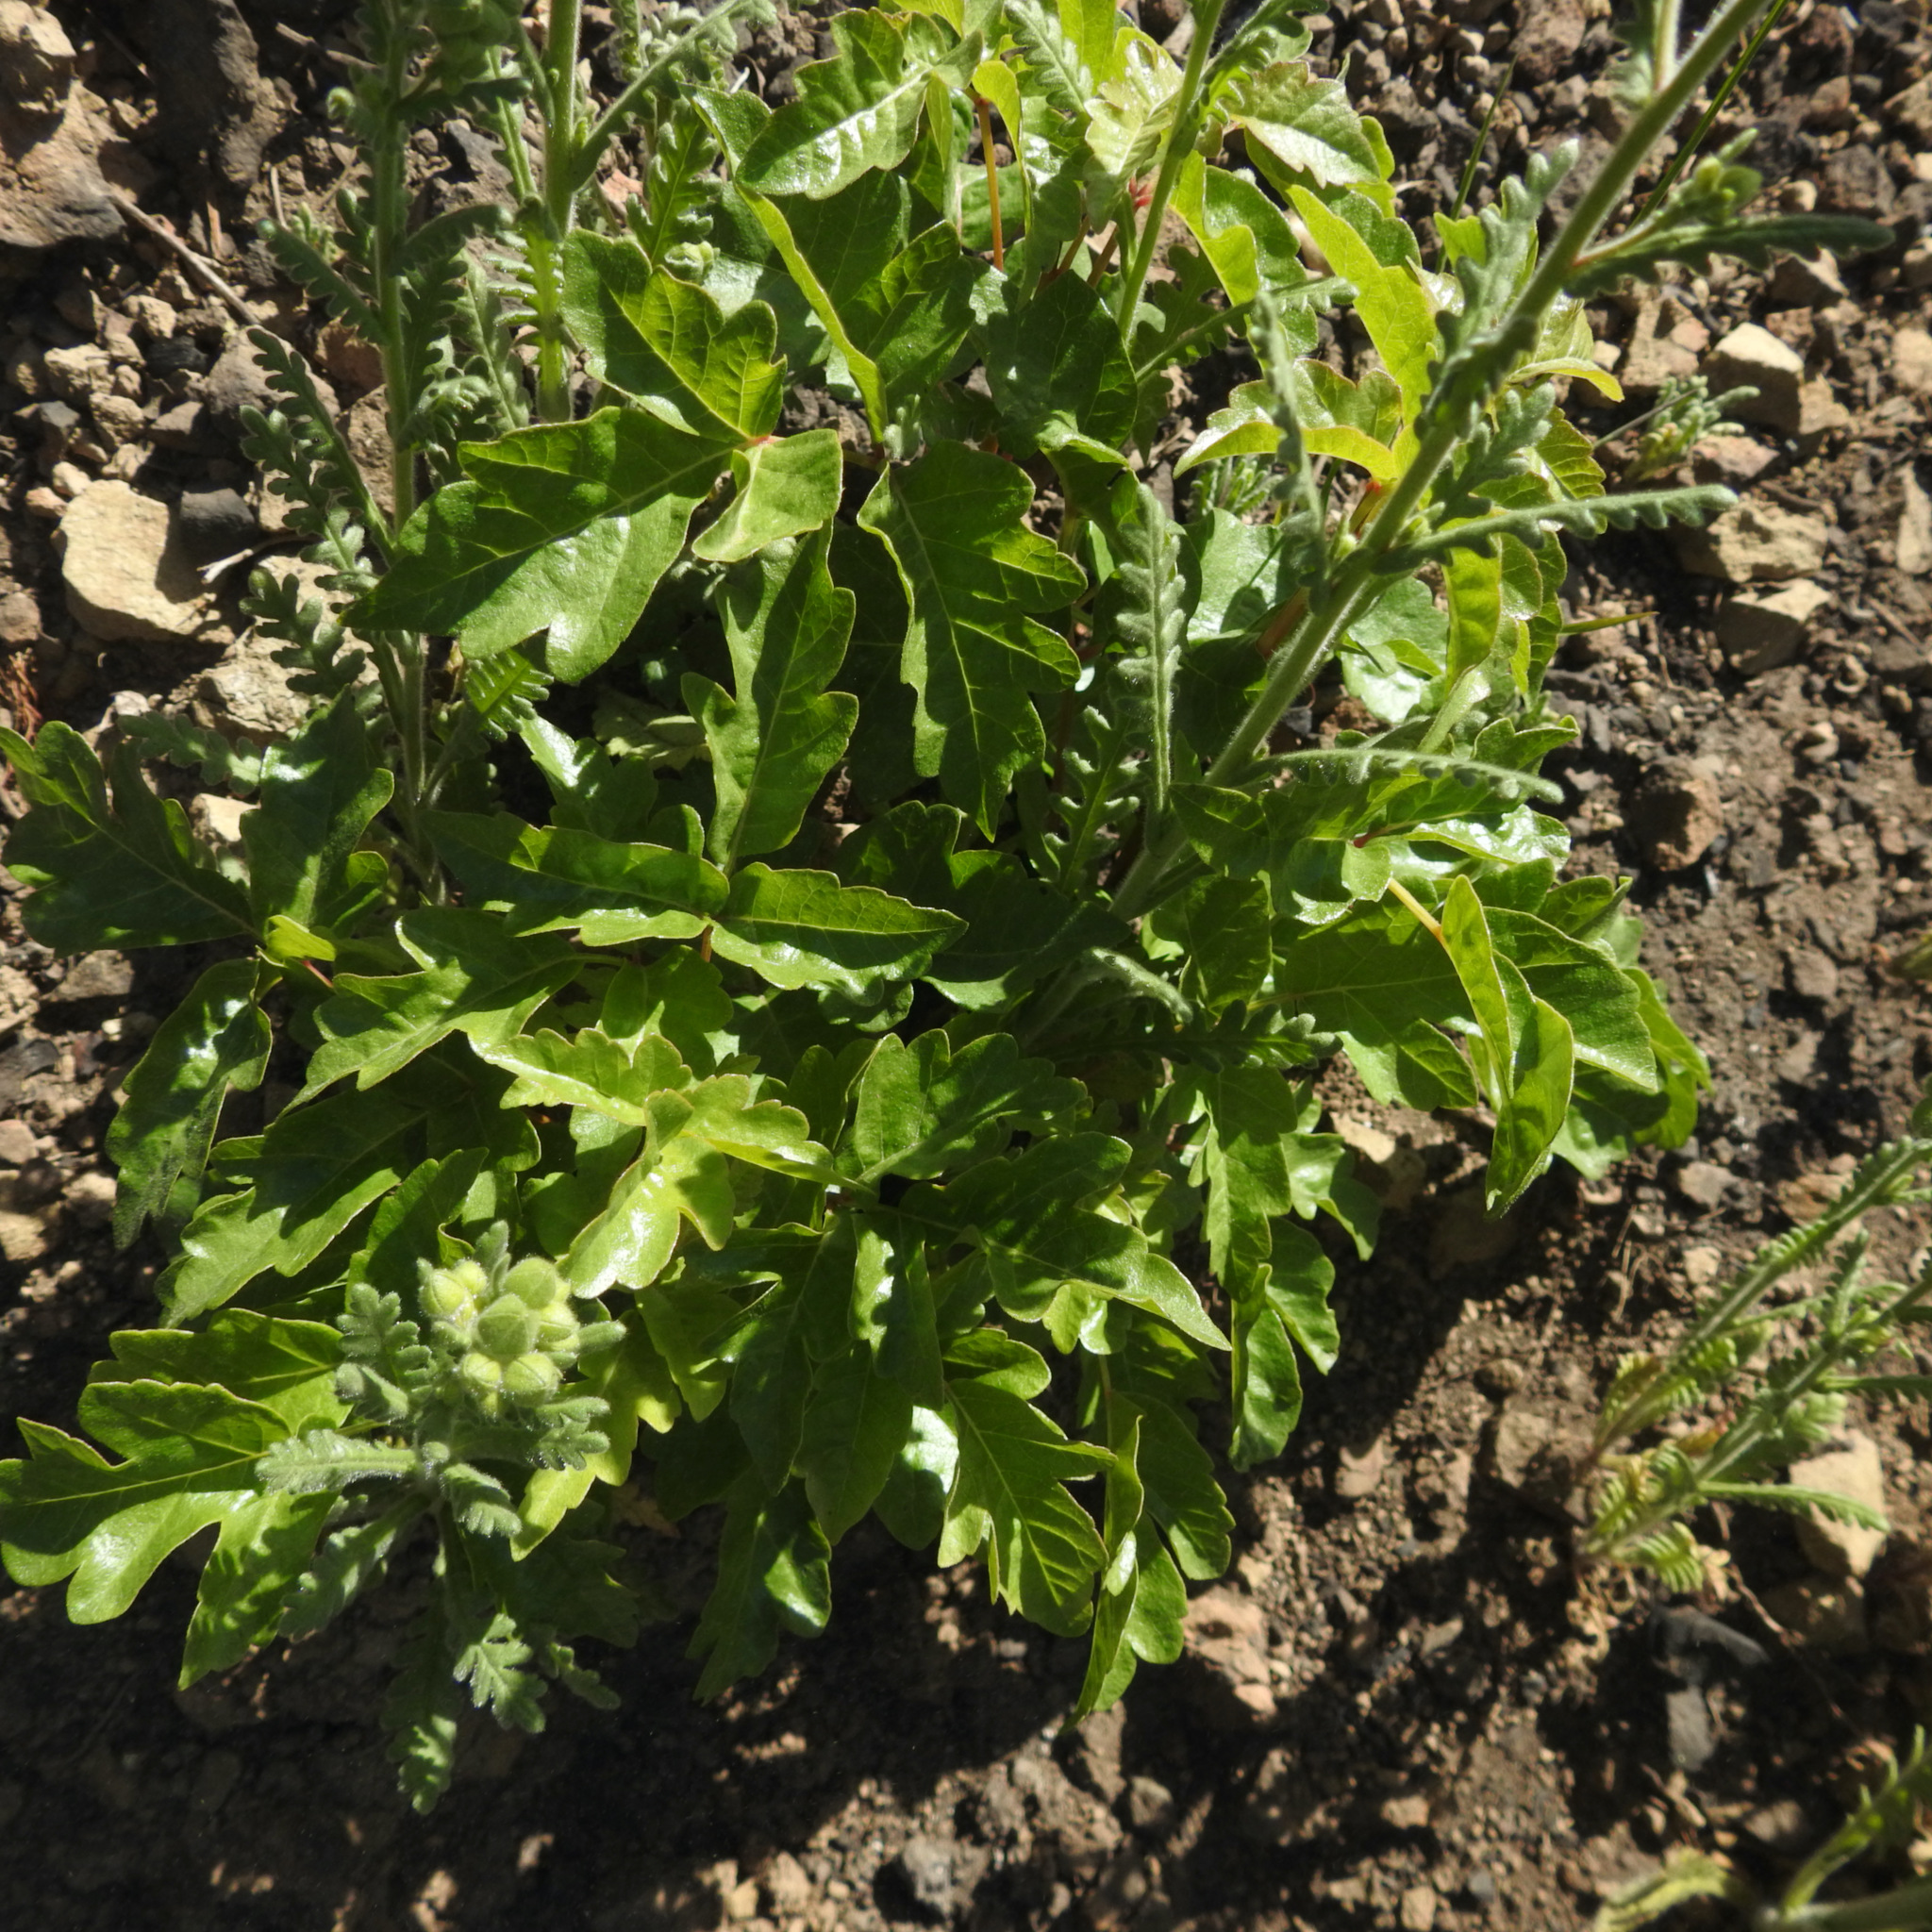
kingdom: Plantae
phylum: Tracheophyta
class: Magnoliopsida
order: Sapindales
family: Anacardiaceae
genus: Toxicodendron
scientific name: Toxicodendron diversilobum
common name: Pacific poison-oak
